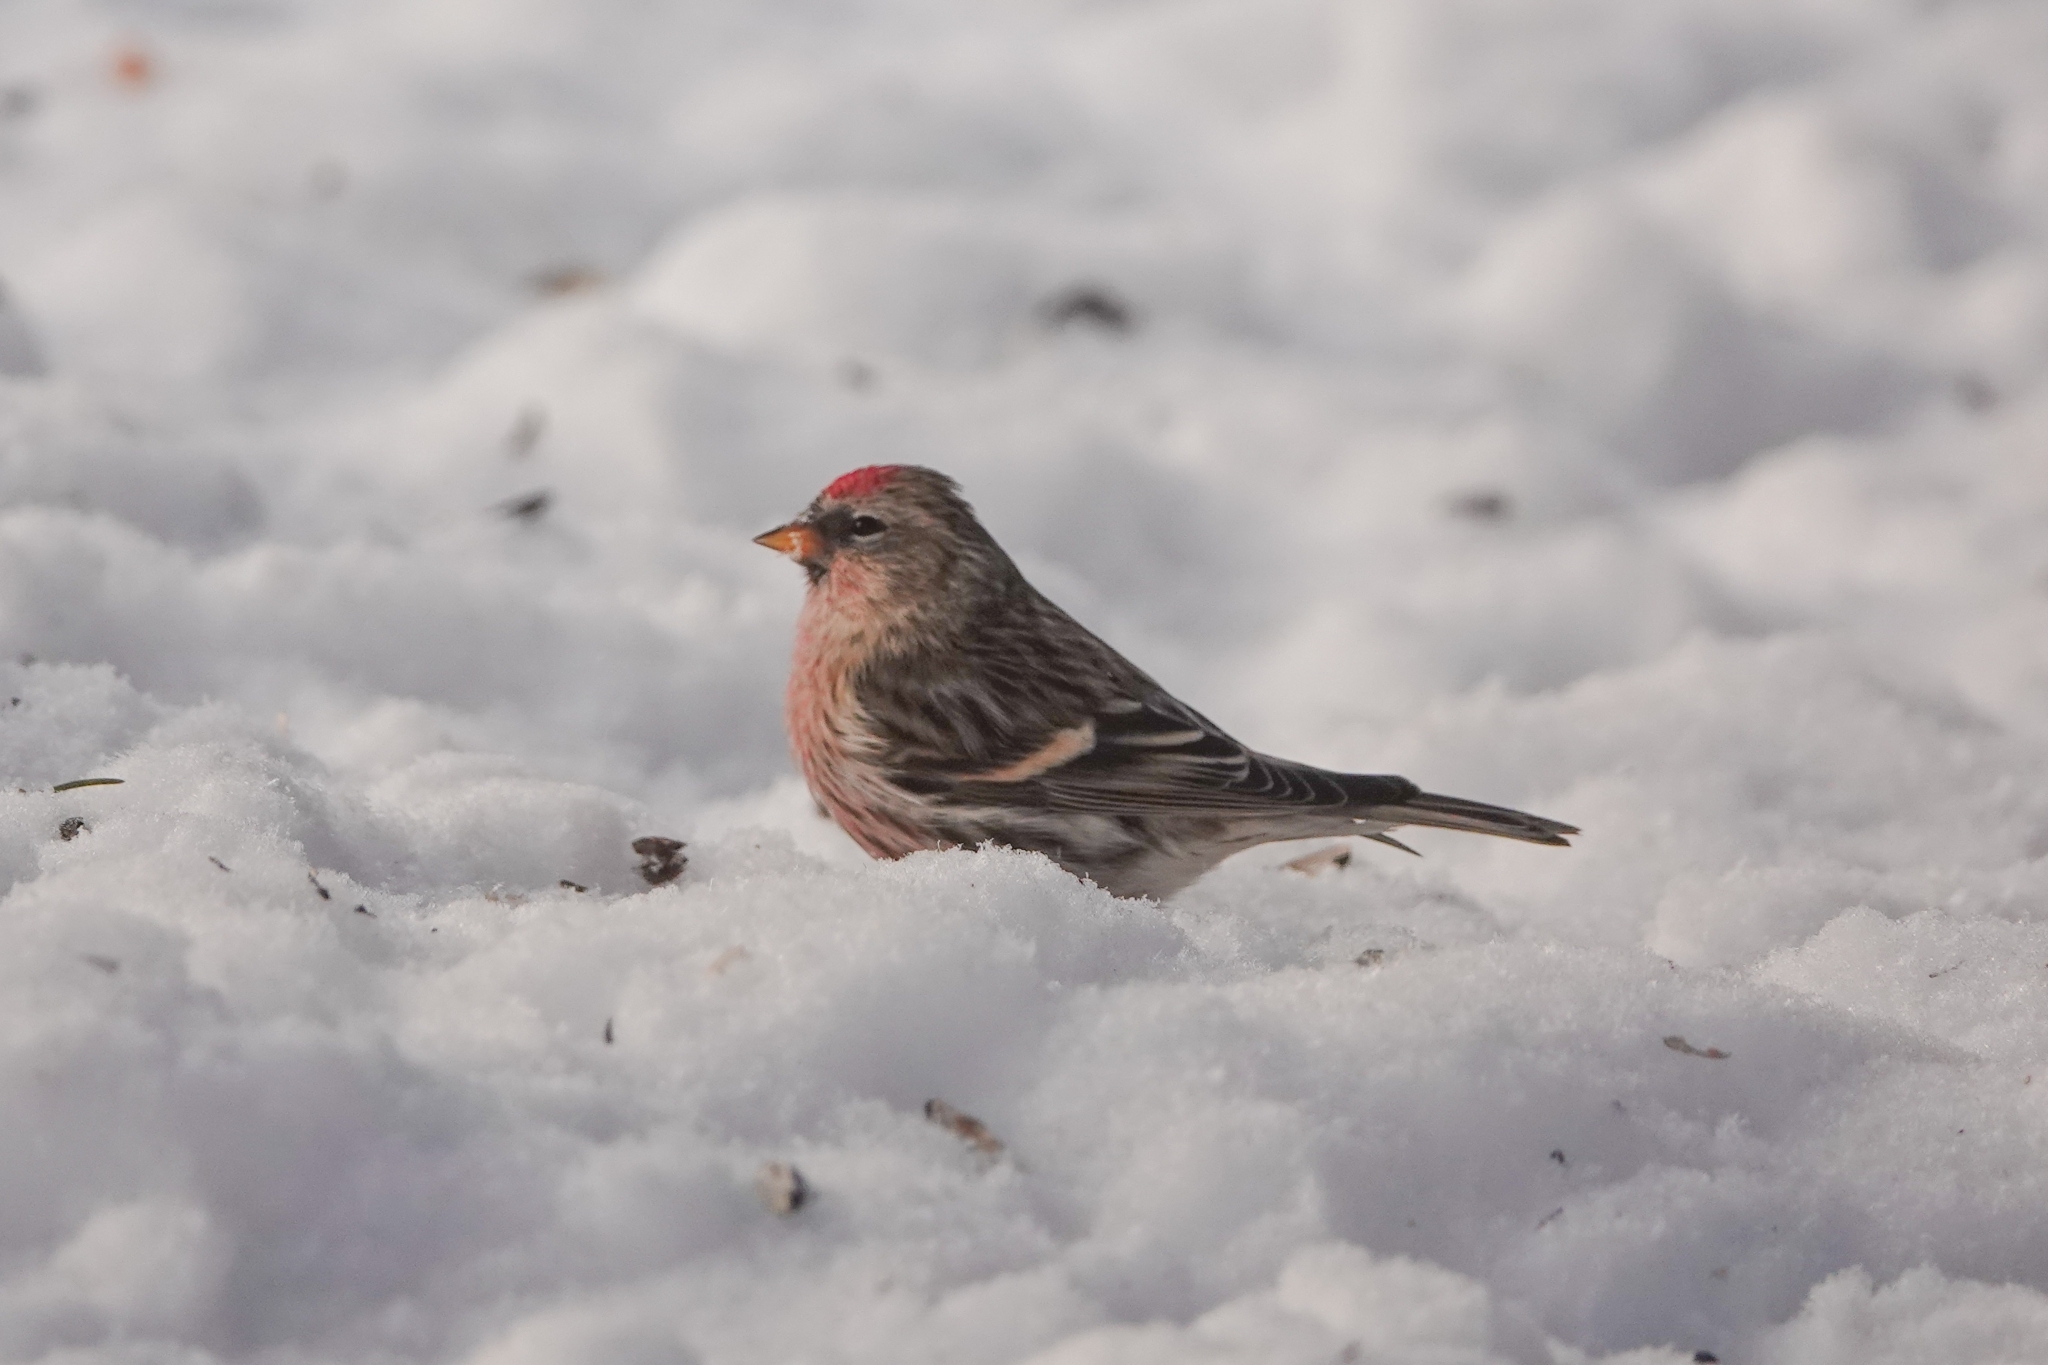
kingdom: Animalia
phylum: Chordata
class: Aves
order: Passeriformes
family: Fringillidae
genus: Acanthis
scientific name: Acanthis flammea
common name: Common redpoll
